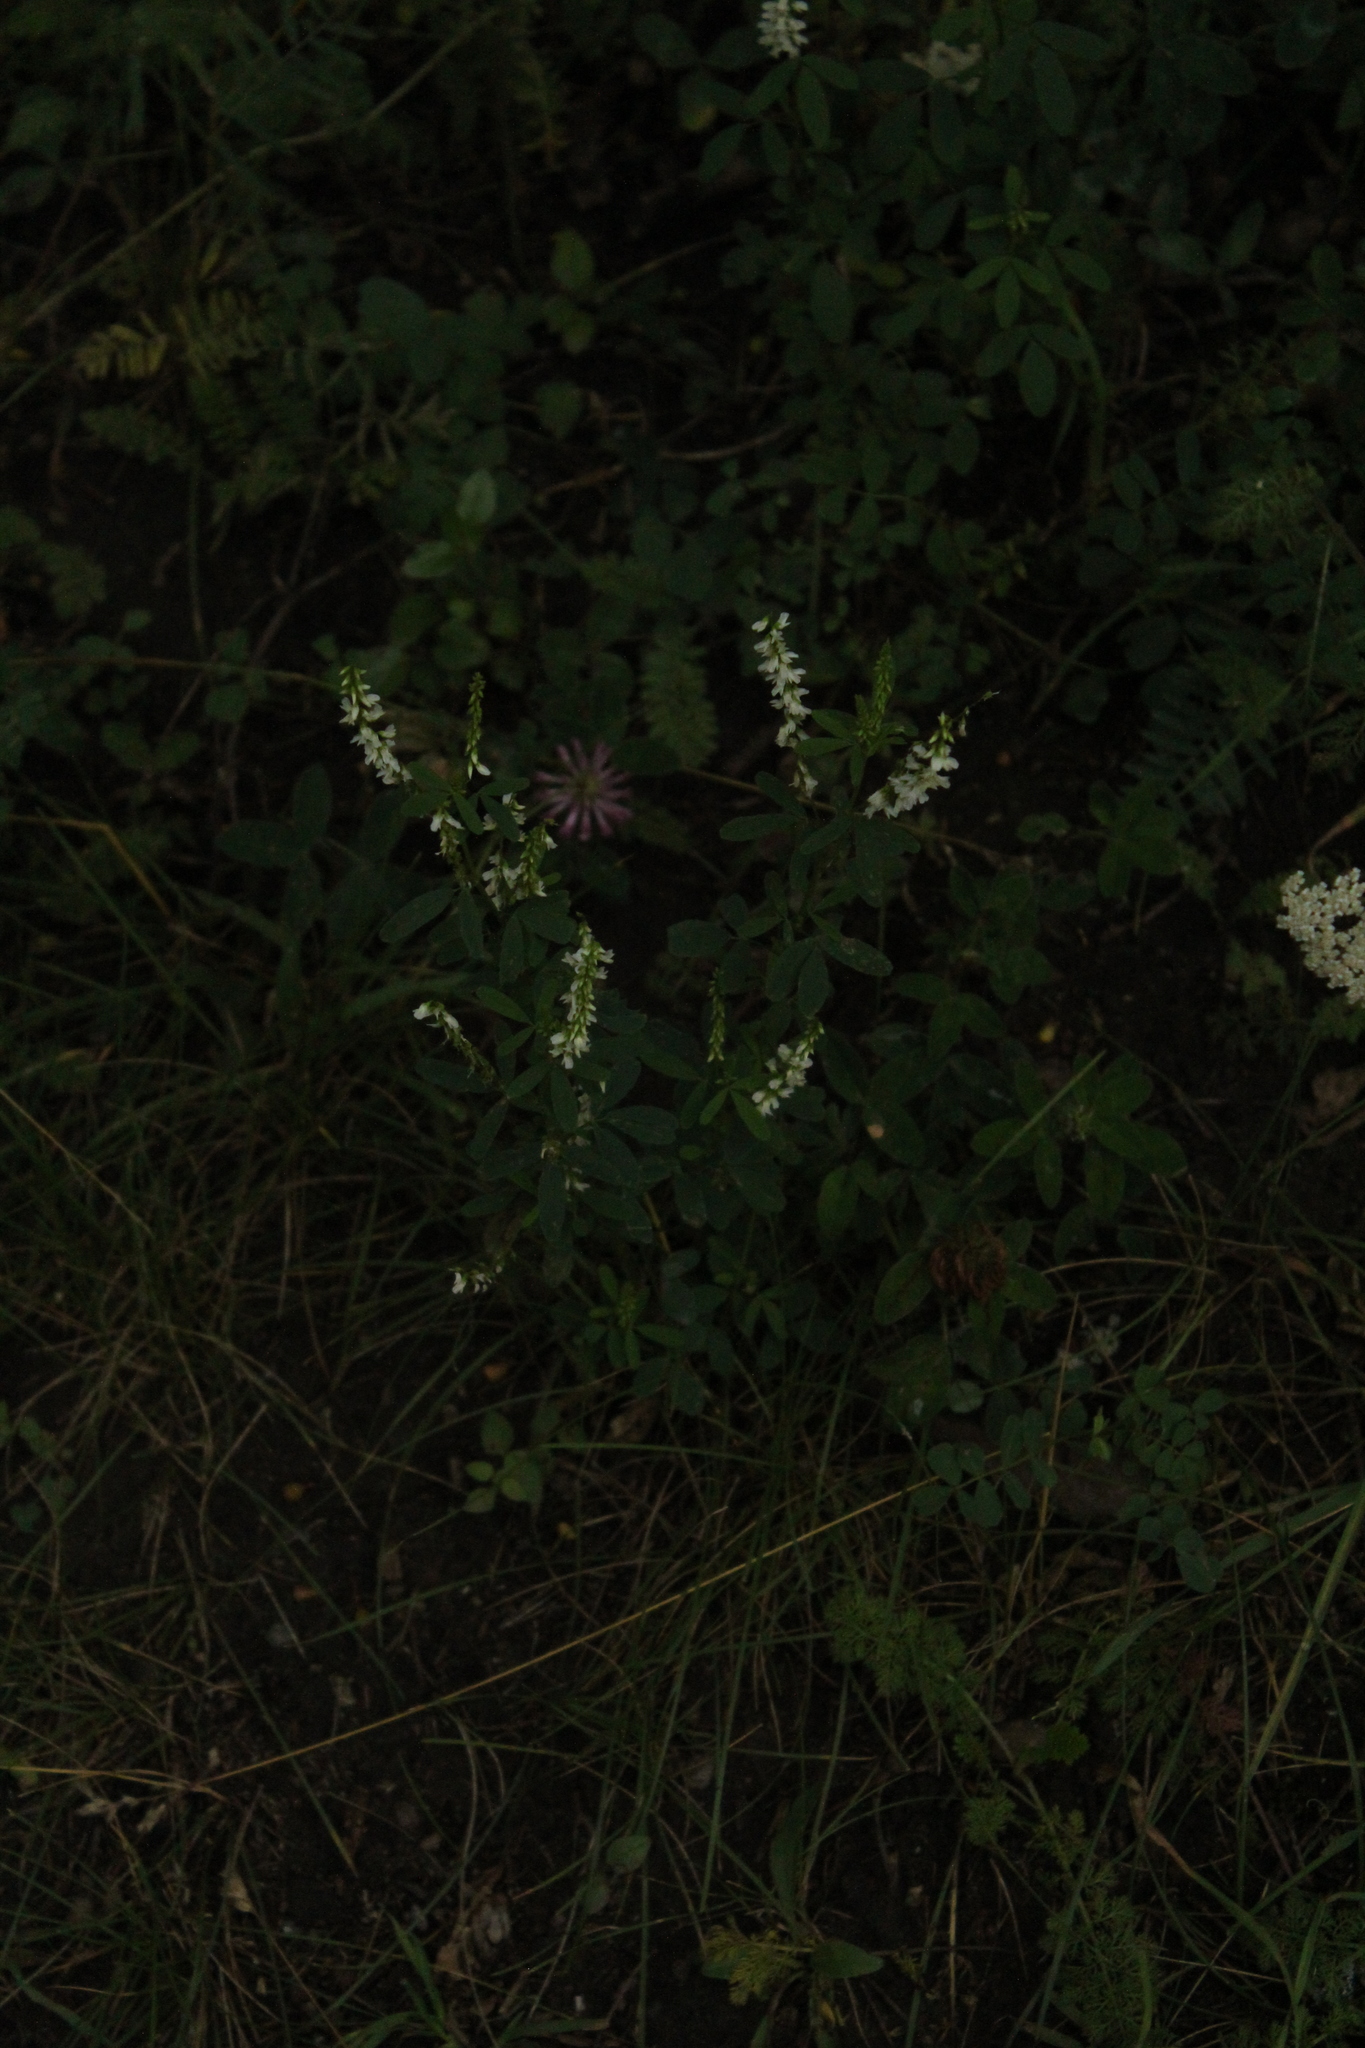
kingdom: Plantae
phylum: Tracheophyta
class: Magnoliopsida
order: Fabales
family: Fabaceae
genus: Melilotus
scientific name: Melilotus albus
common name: White melilot
